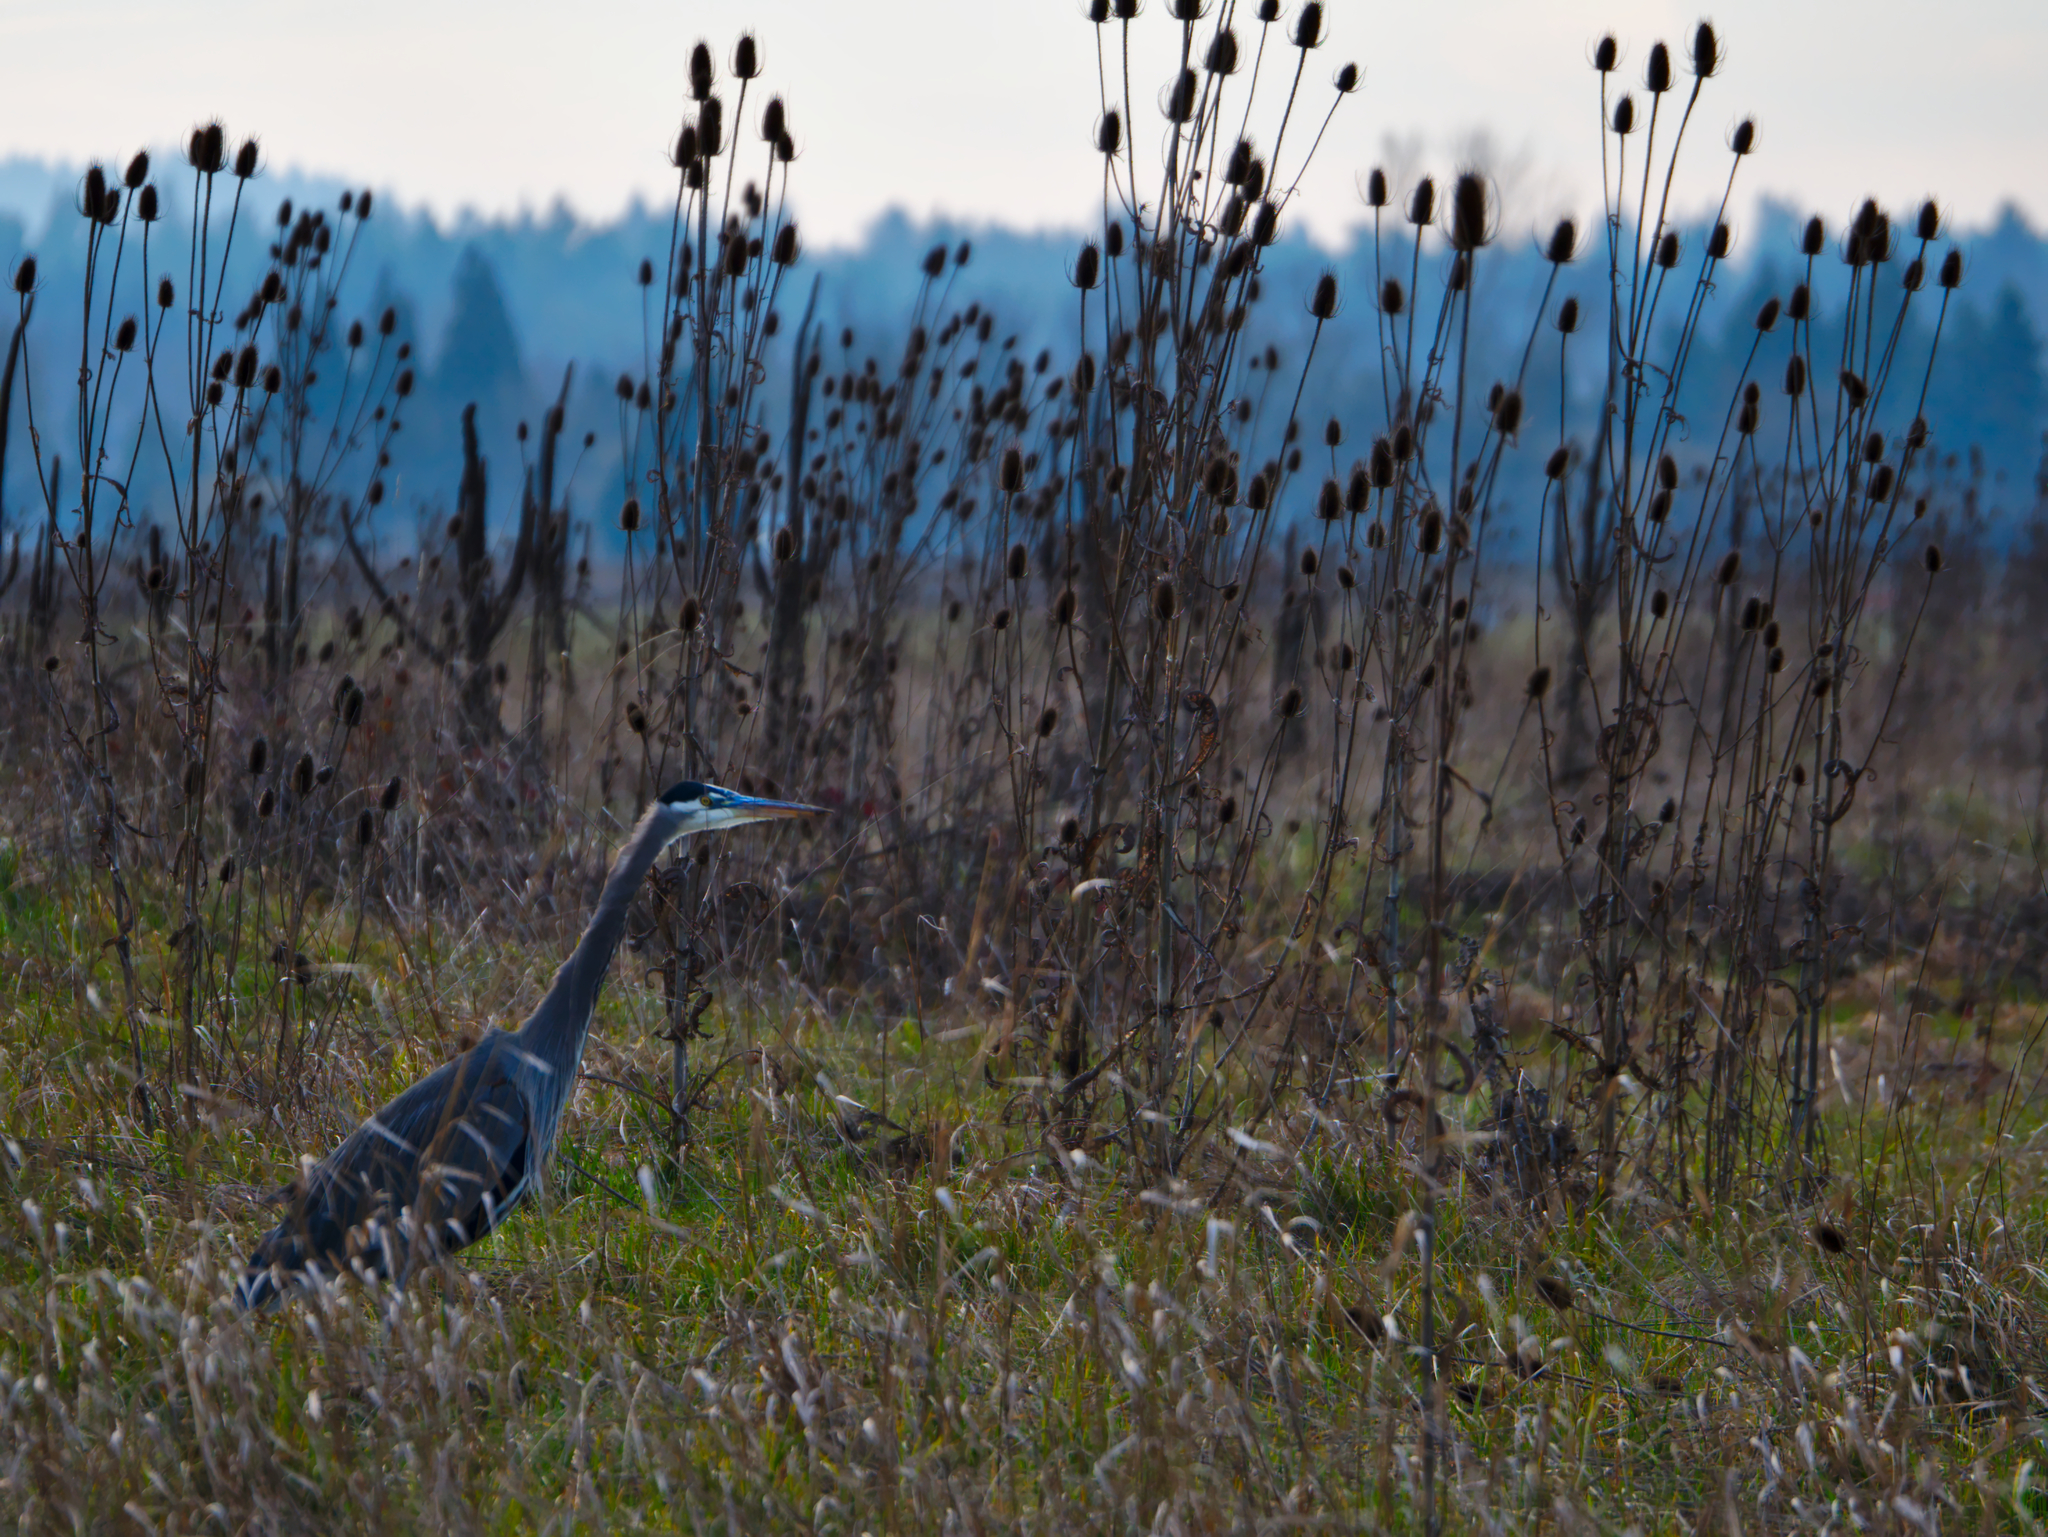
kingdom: Animalia
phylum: Chordata
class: Aves
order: Pelecaniformes
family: Ardeidae
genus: Ardea
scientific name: Ardea herodias
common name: Great blue heron
